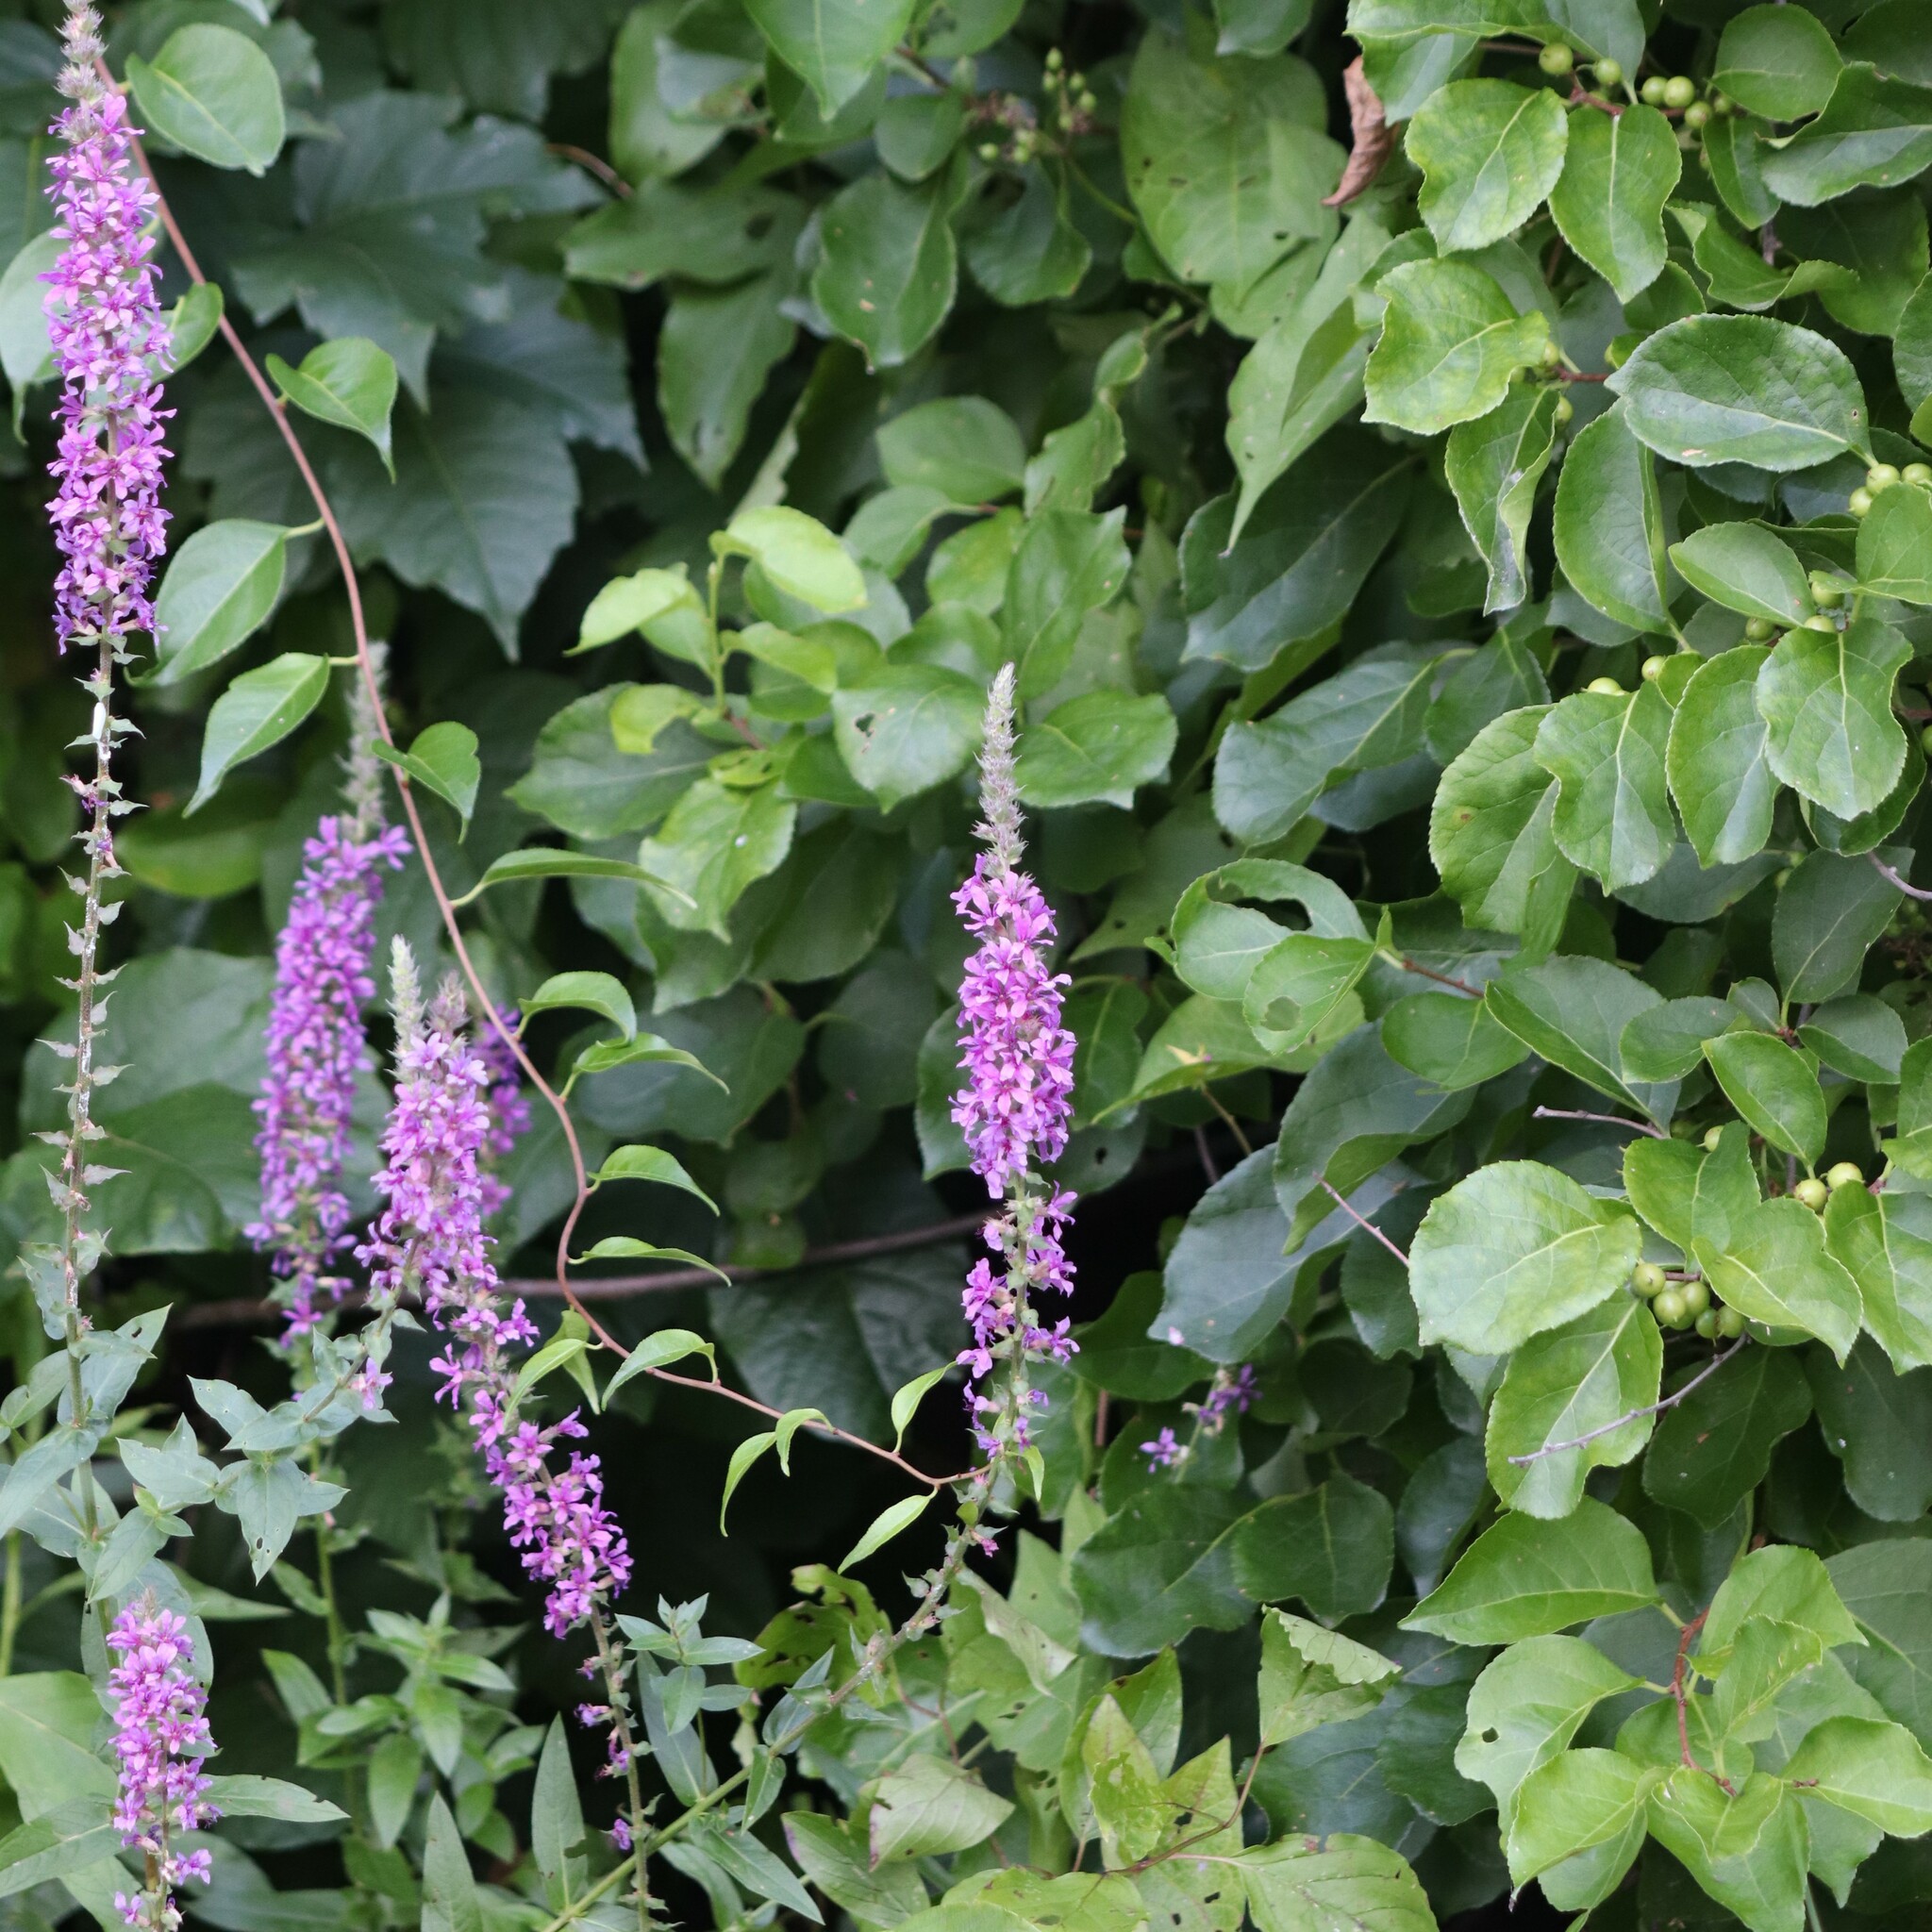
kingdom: Plantae
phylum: Tracheophyta
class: Magnoliopsida
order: Myrtales
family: Lythraceae
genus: Lythrum
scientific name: Lythrum salicaria
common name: Purple loosestrife
